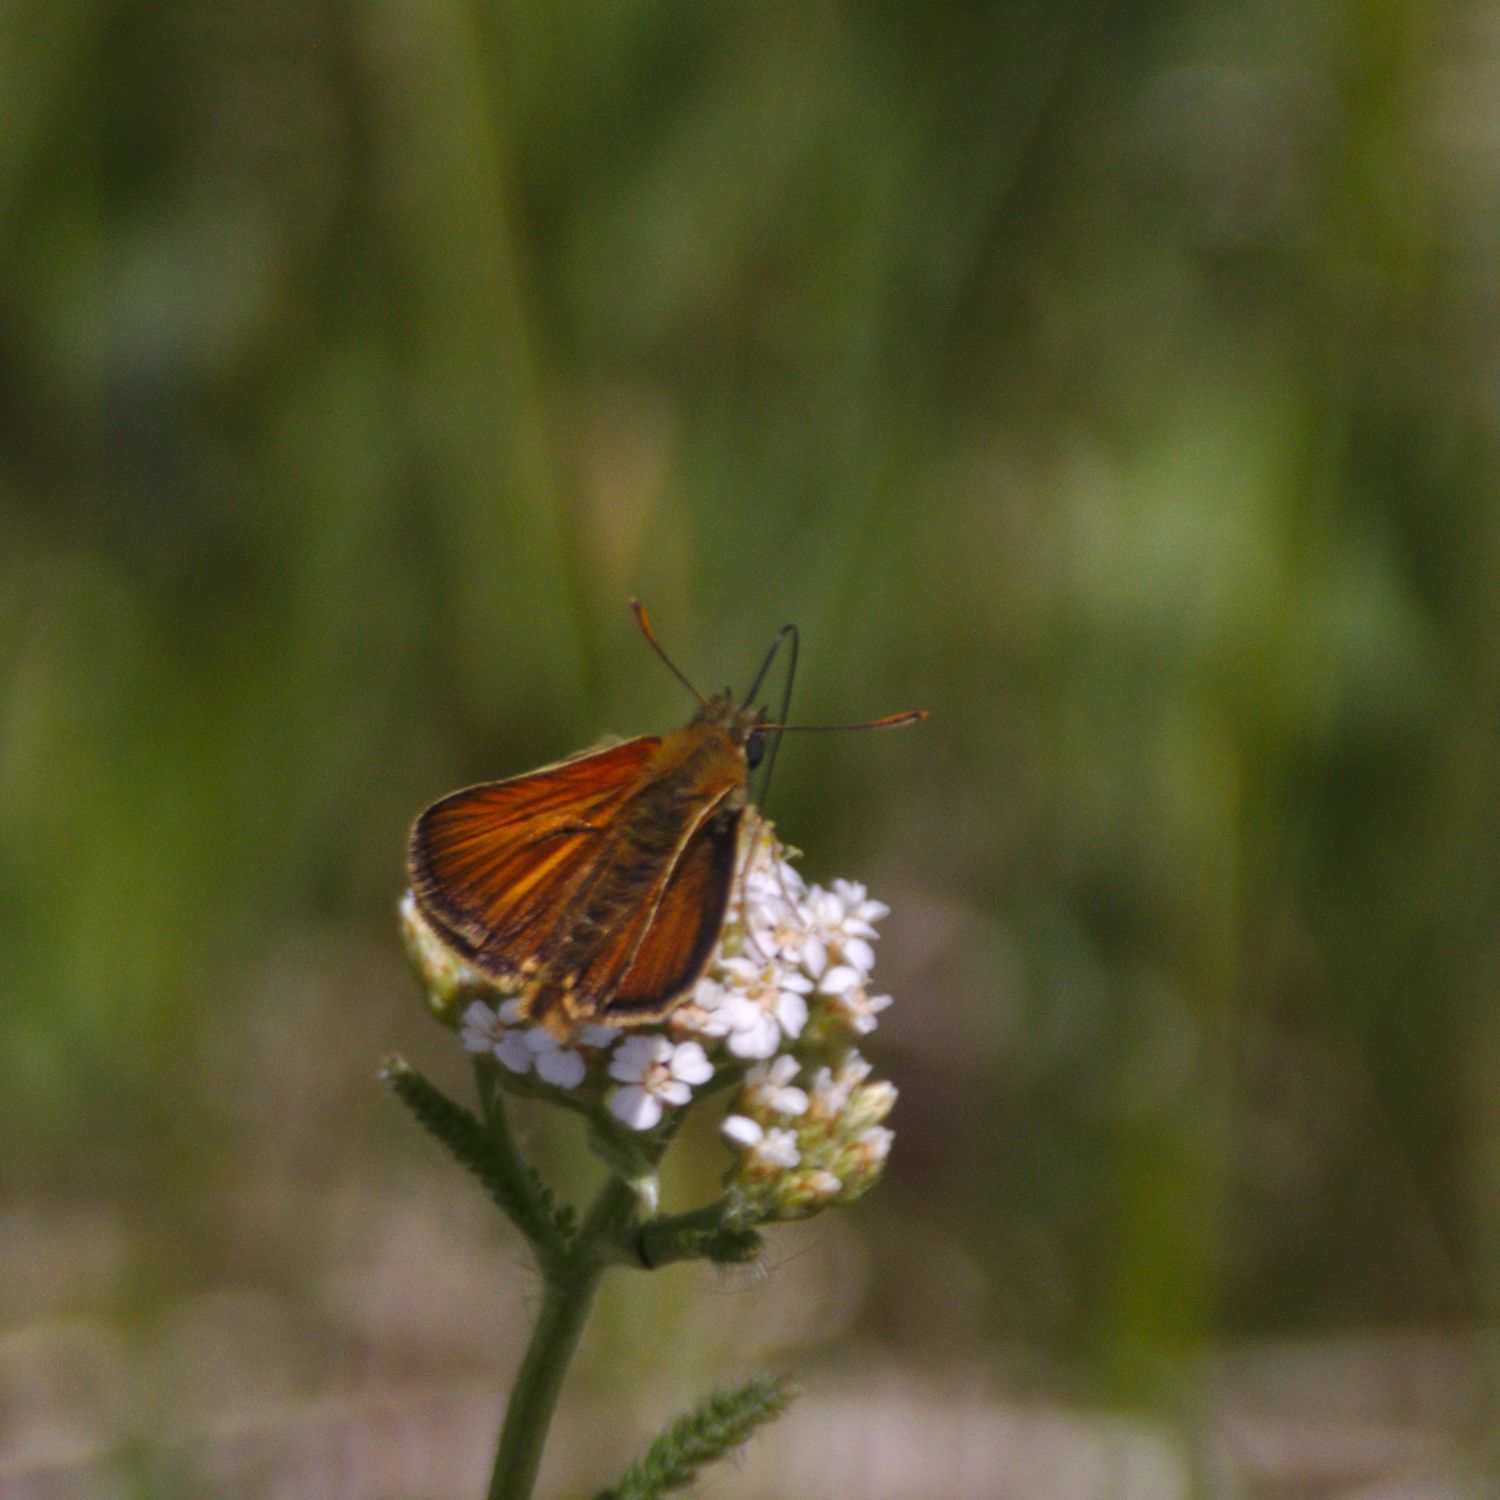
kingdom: Animalia
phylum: Arthropoda
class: Insecta
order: Lepidoptera
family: Hesperiidae
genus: Thymelicus
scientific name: Thymelicus sylvestris
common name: Small skipper
